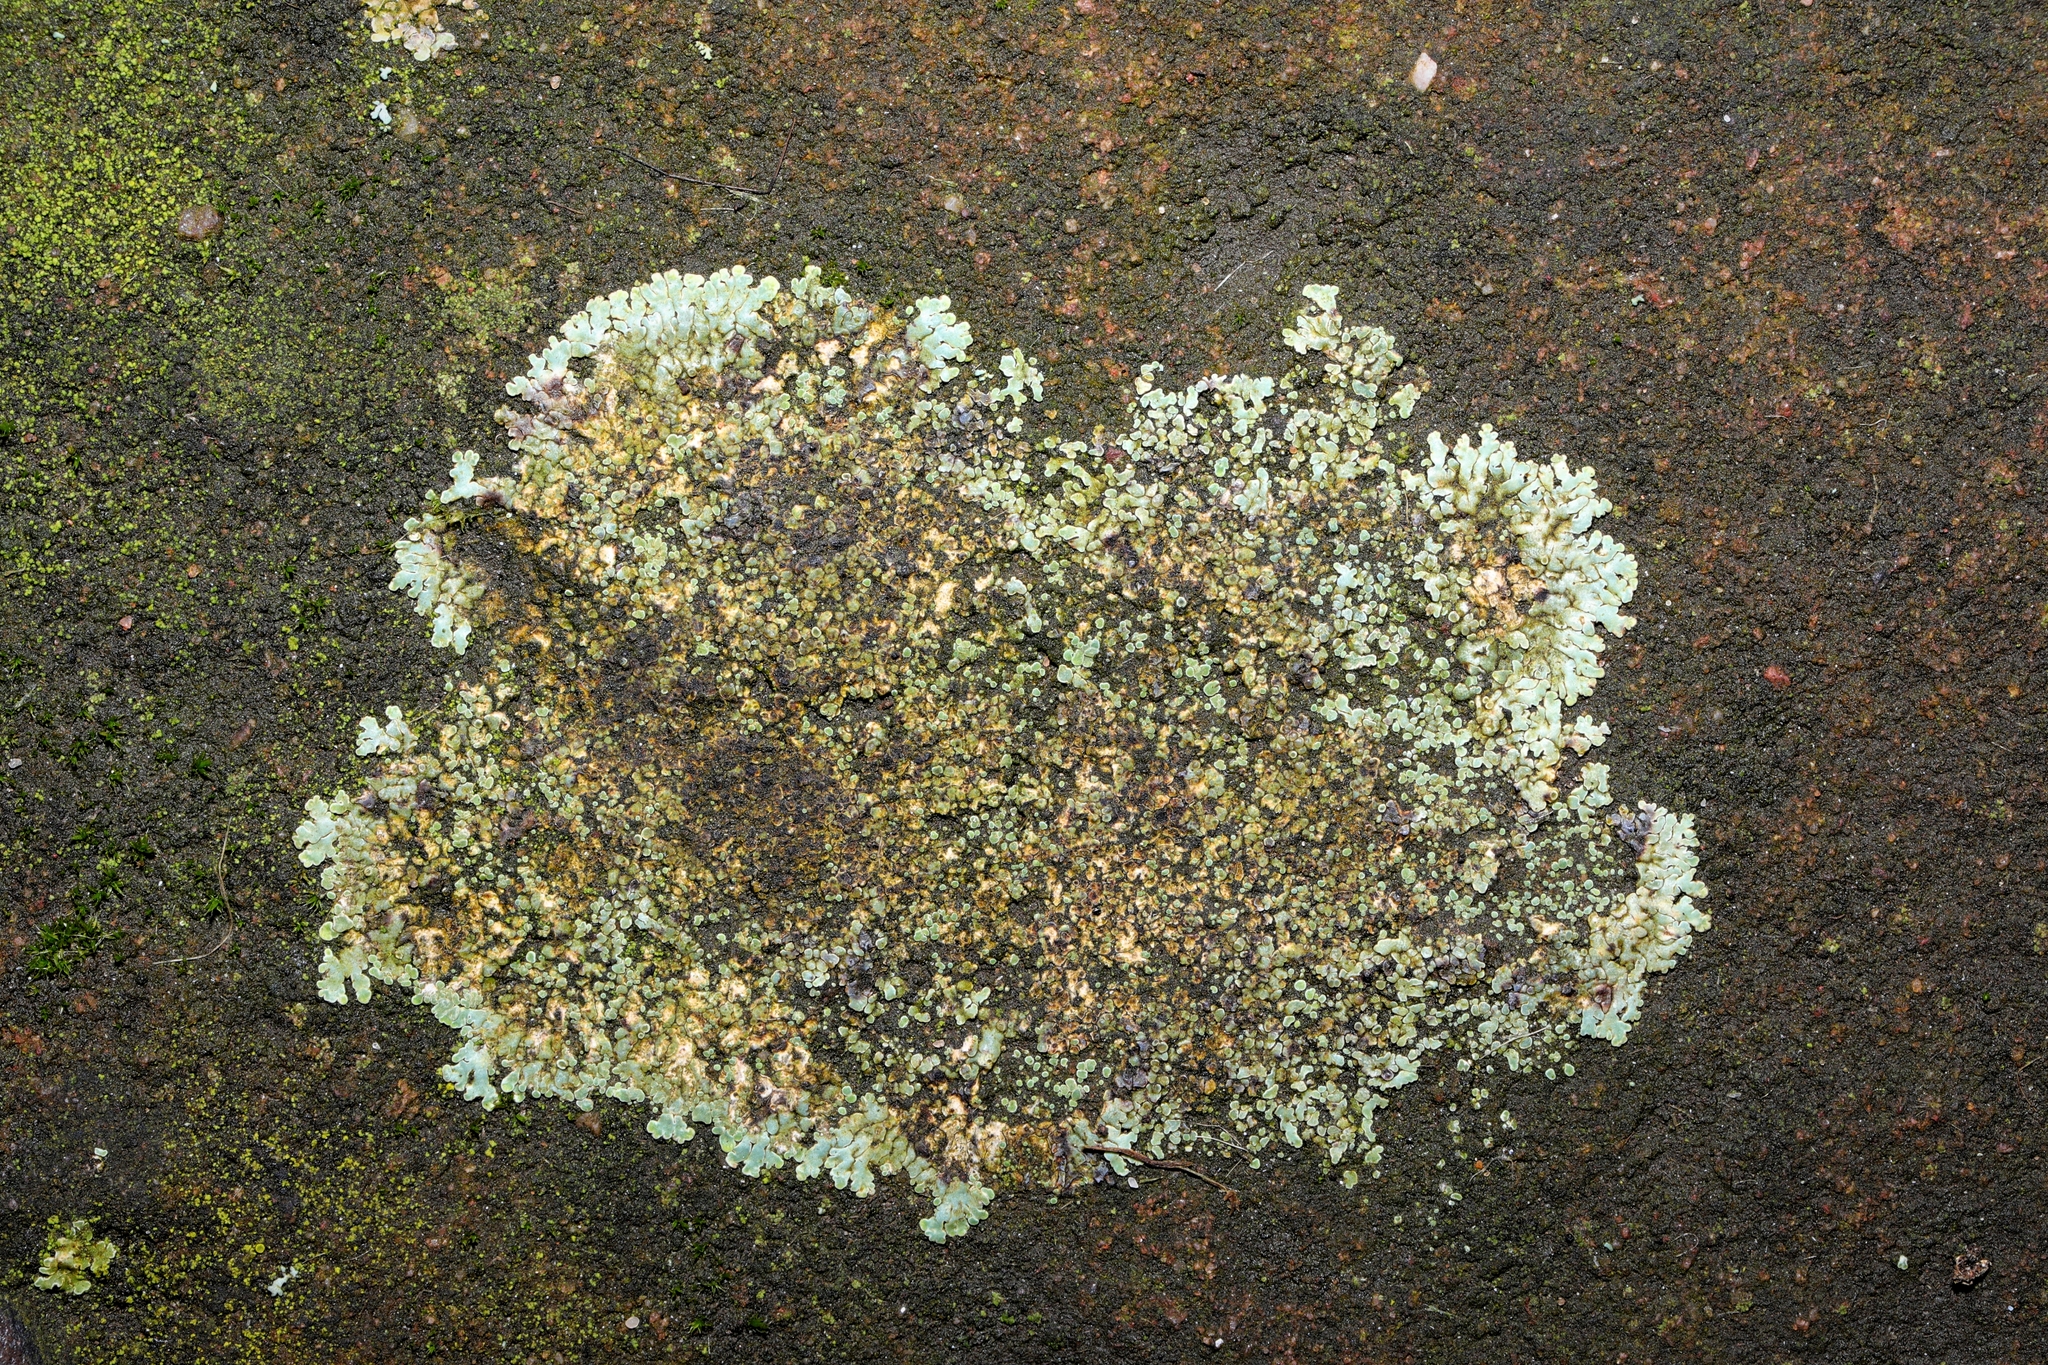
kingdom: Fungi
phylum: Ascomycota
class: Lecanoromycetes
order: Lecanorales
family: Lecanoraceae
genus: Protoparmeliopsis
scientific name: Protoparmeliopsis muralis
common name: Stonewall rim lichen
